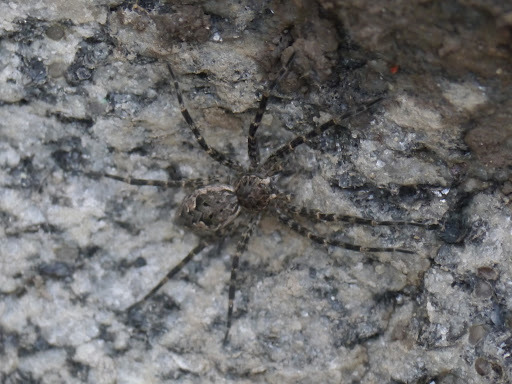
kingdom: Animalia
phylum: Arthropoda
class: Arachnida
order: Araneae
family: Pisauridae
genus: Dolomedes
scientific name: Dolomedes tenebrosus
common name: Dark fishing spider
